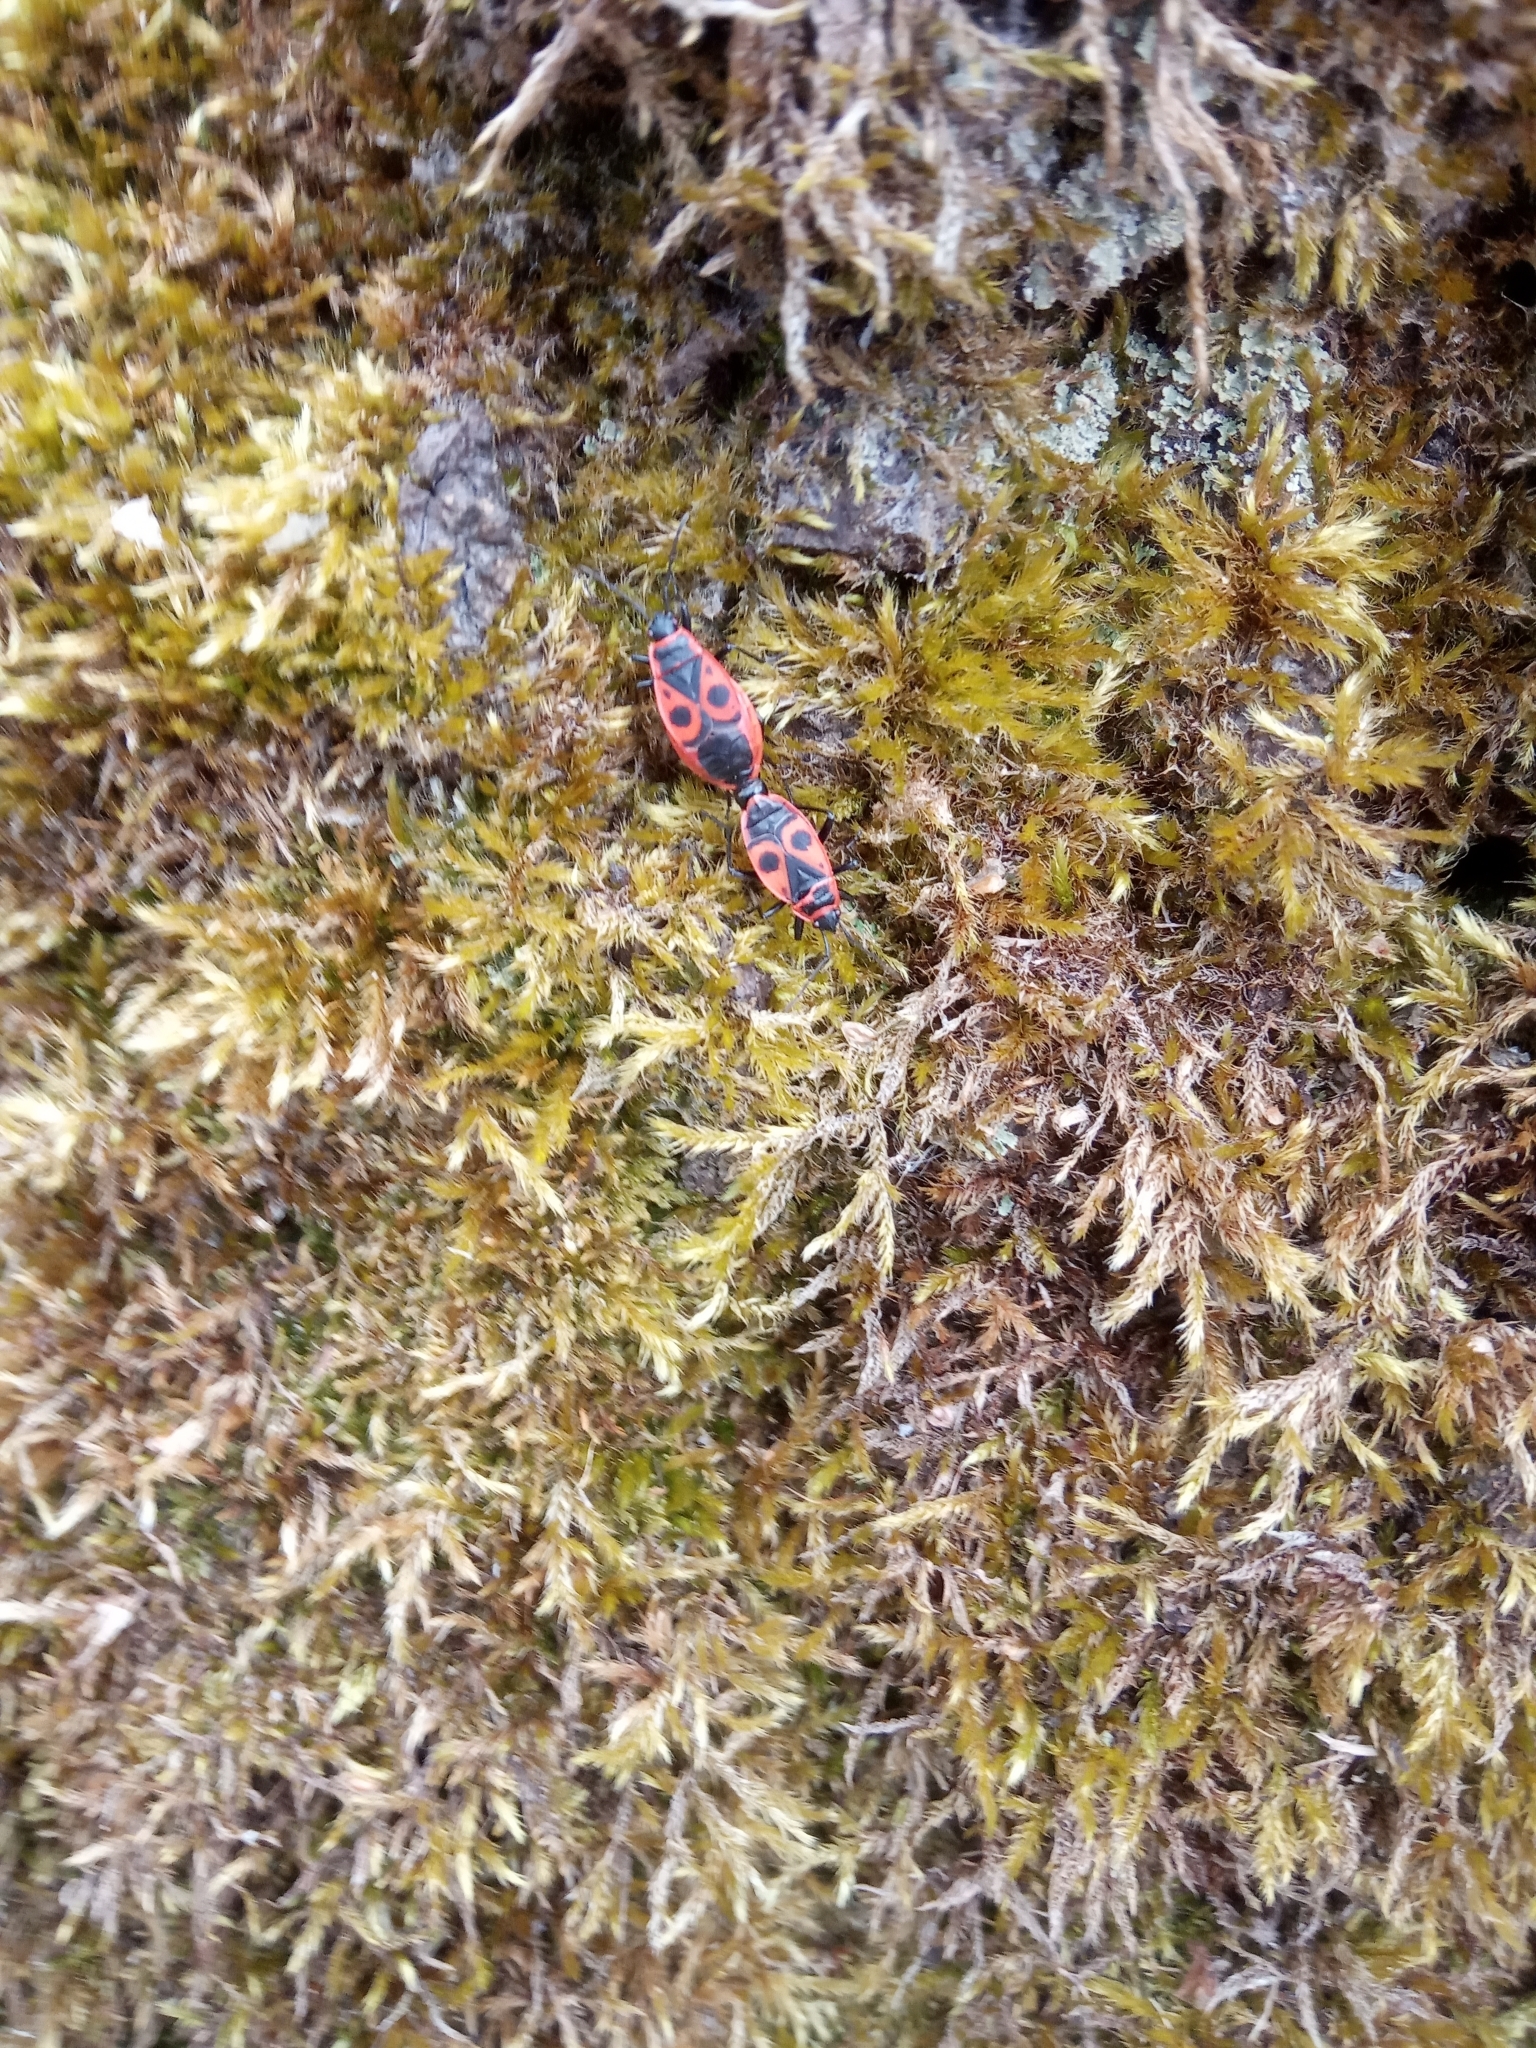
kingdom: Animalia
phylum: Arthropoda
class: Insecta
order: Hemiptera
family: Pyrrhocoridae
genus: Pyrrhocoris
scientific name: Pyrrhocoris apterus
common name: Firebug
